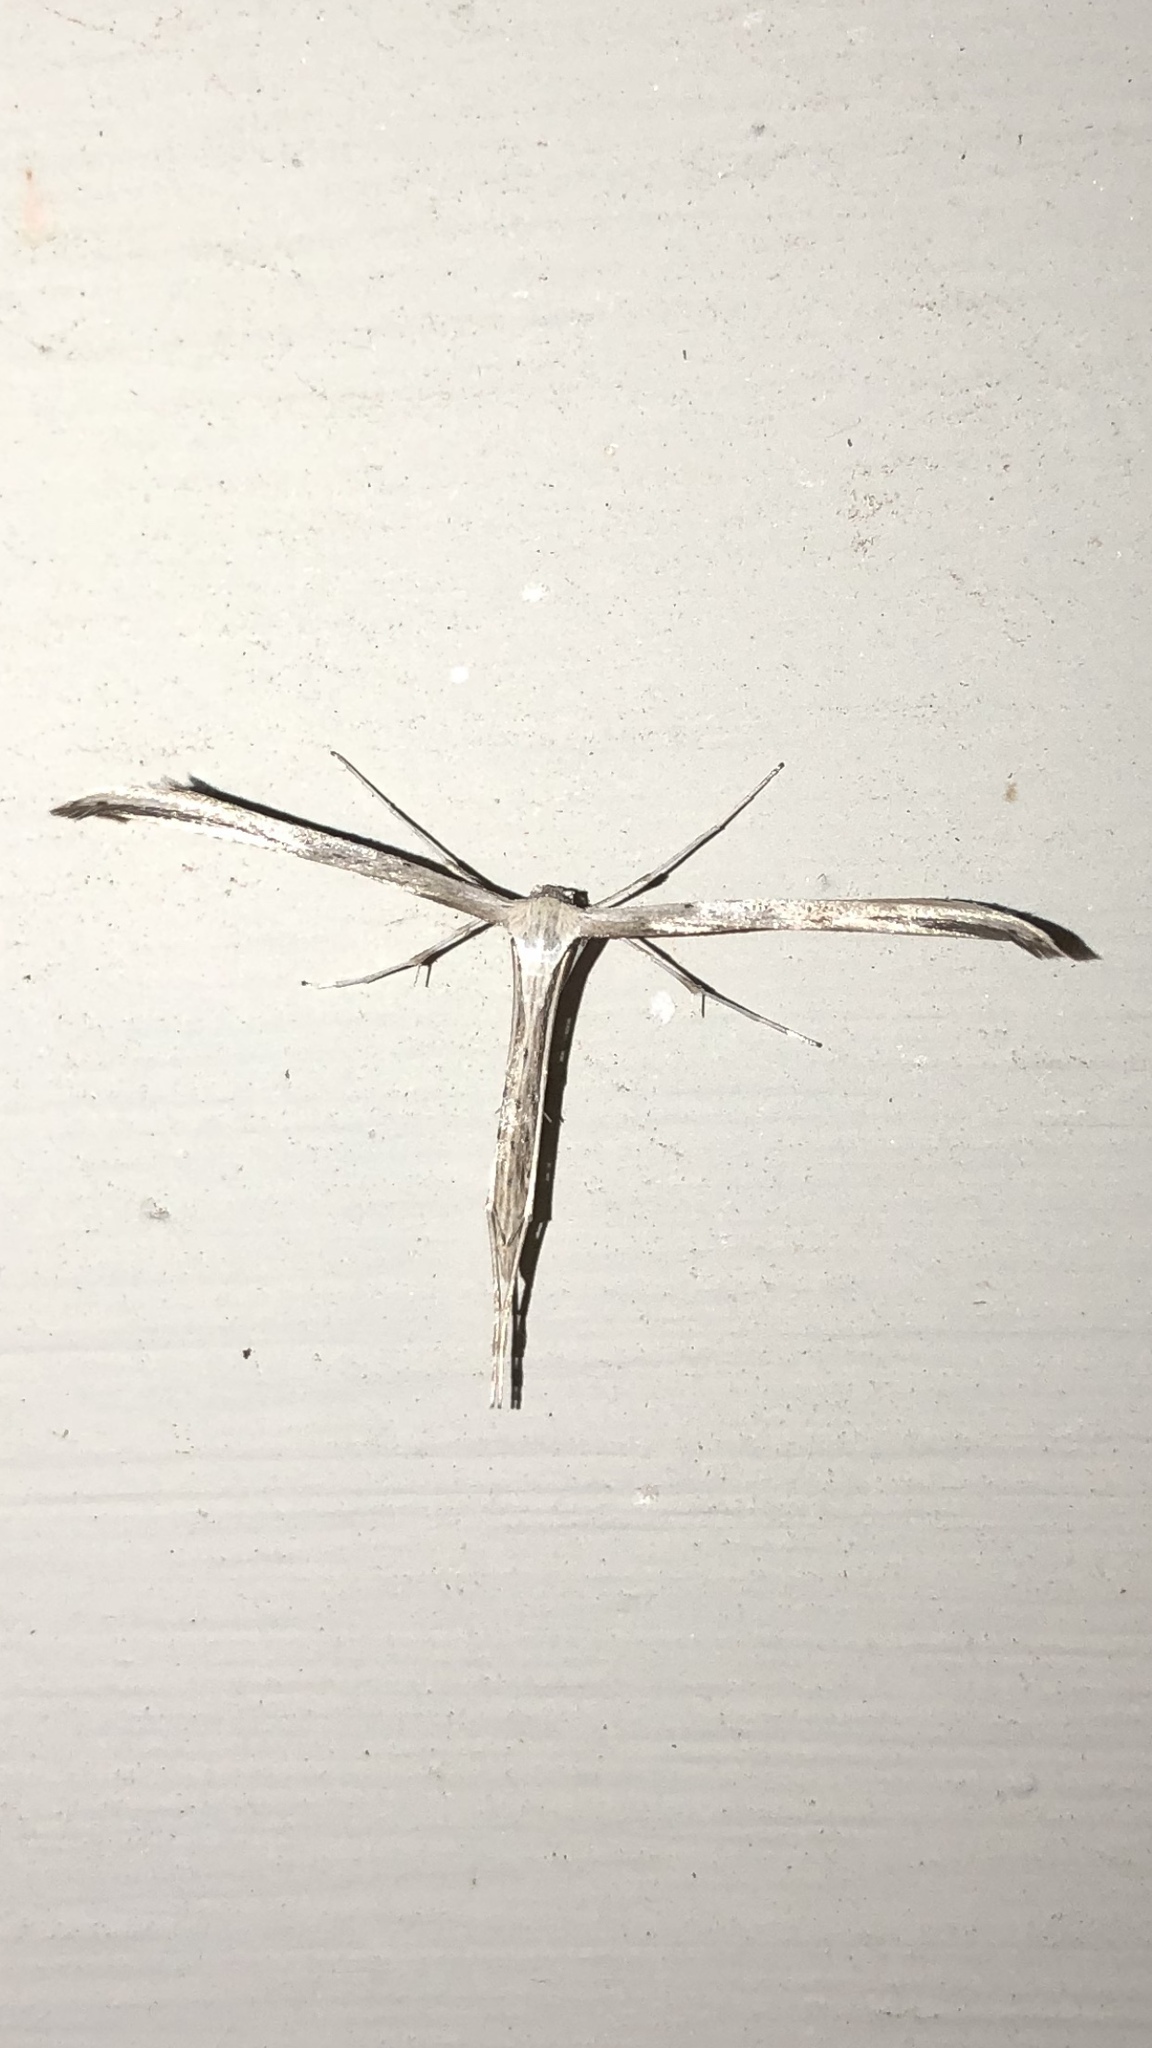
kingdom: Animalia
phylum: Arthropoda
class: Insecta
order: Lepidoptera
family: Pterophoridae
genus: Emmelina
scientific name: Emmelina monodactyla
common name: Common plume
